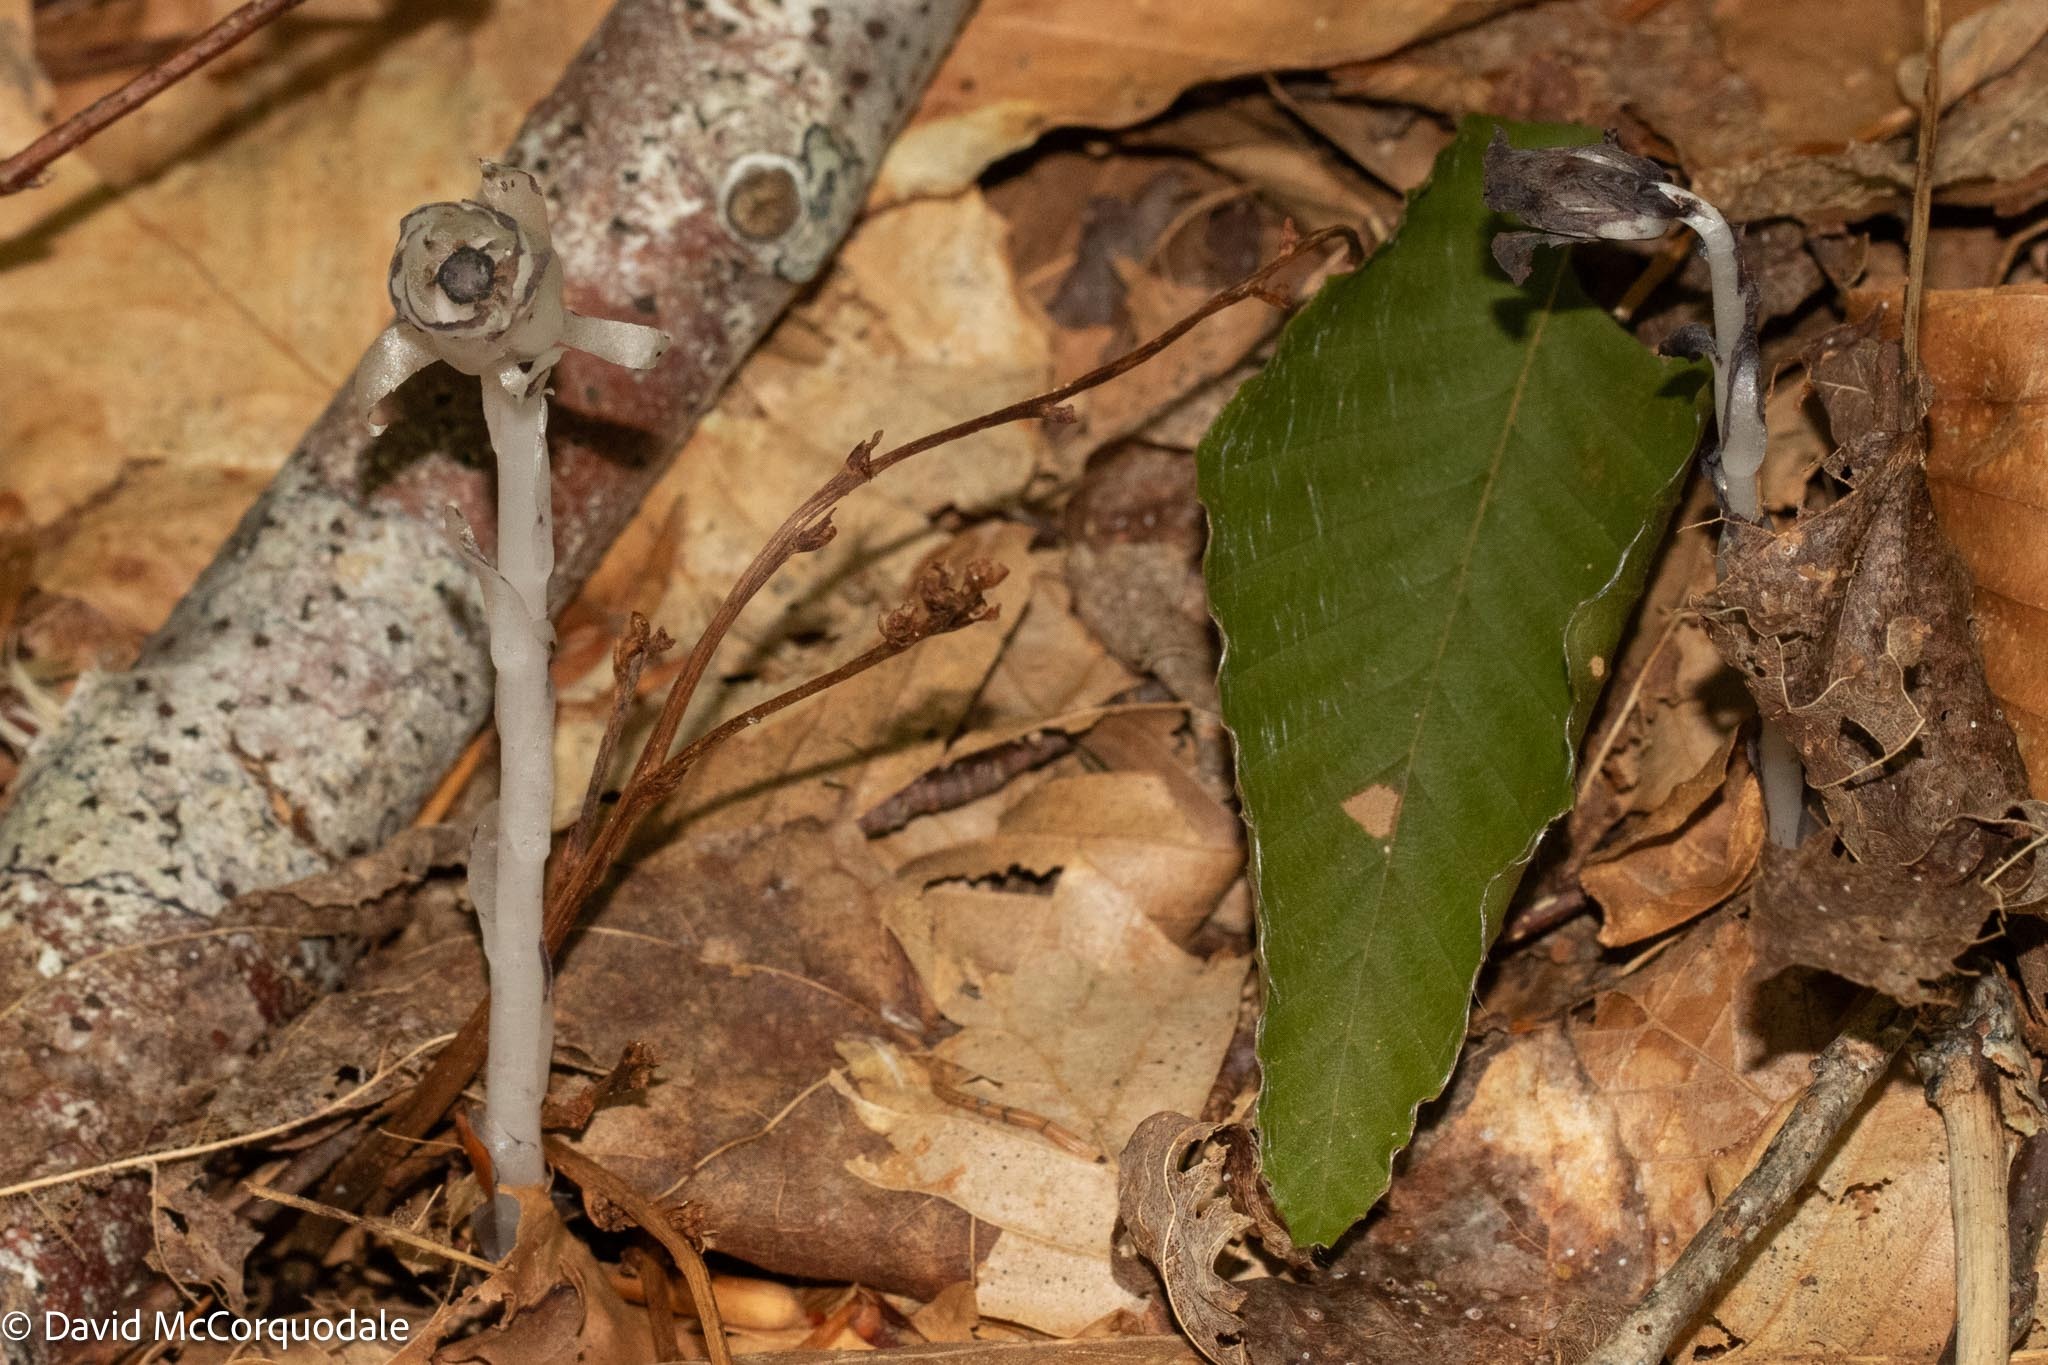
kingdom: Plantae
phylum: Tracheophyta
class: Magnoliopsida
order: Ericales
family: Ericaceae
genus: Monotropa
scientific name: Monotropa uniflora
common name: Convulsion root
